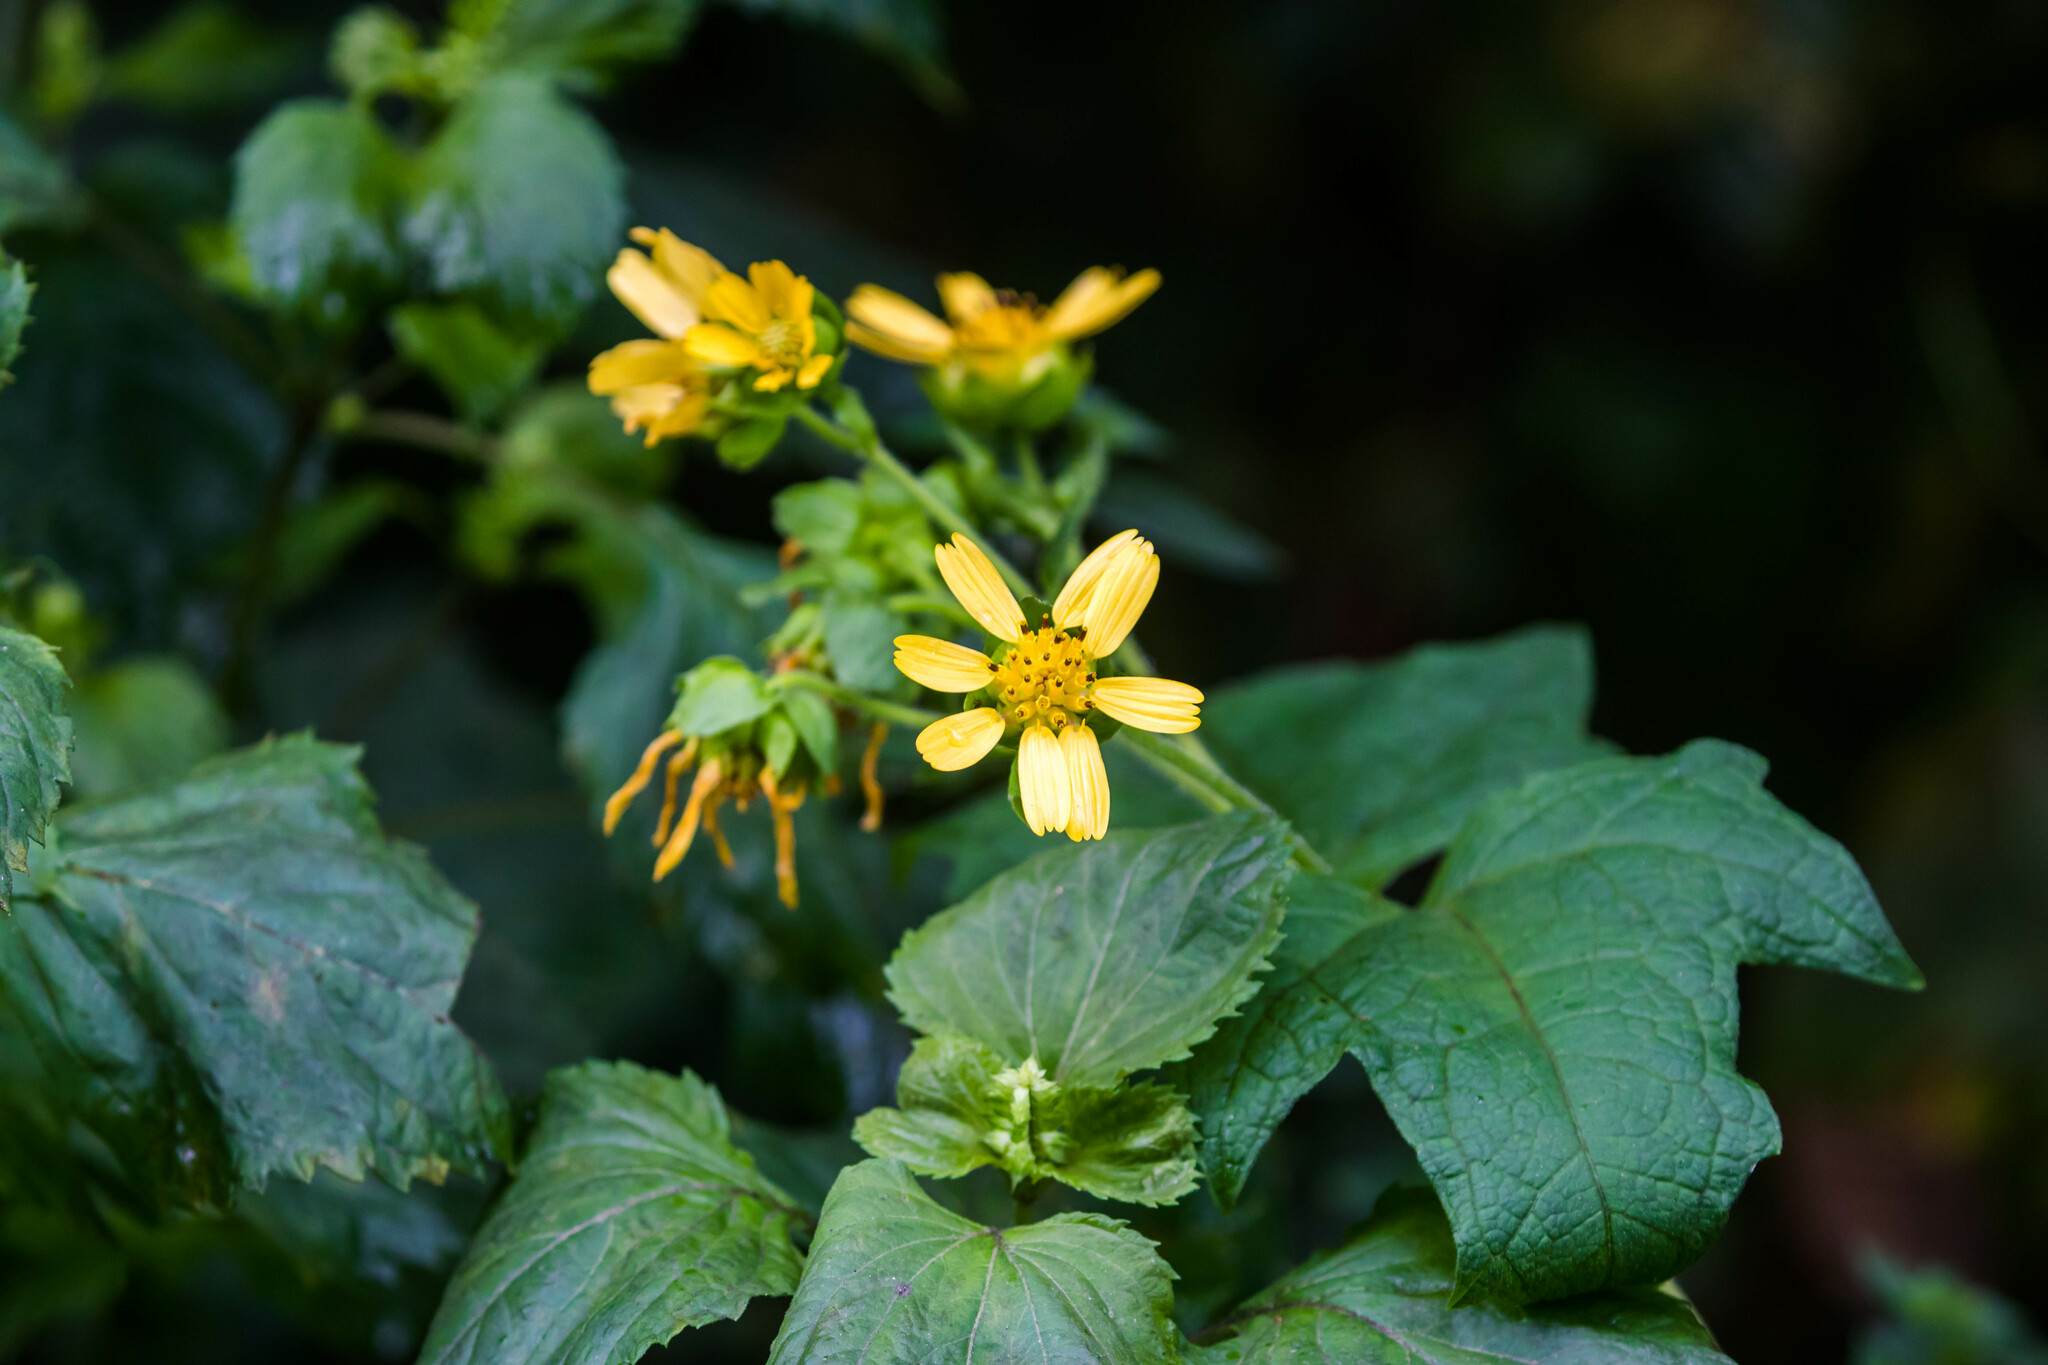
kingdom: Plantae
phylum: Tracheophyta
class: Magnoliopsida
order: Asterales
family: Asteraceae
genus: Smallanthus
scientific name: Smallanthus uvedalia
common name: Bear's-foot
